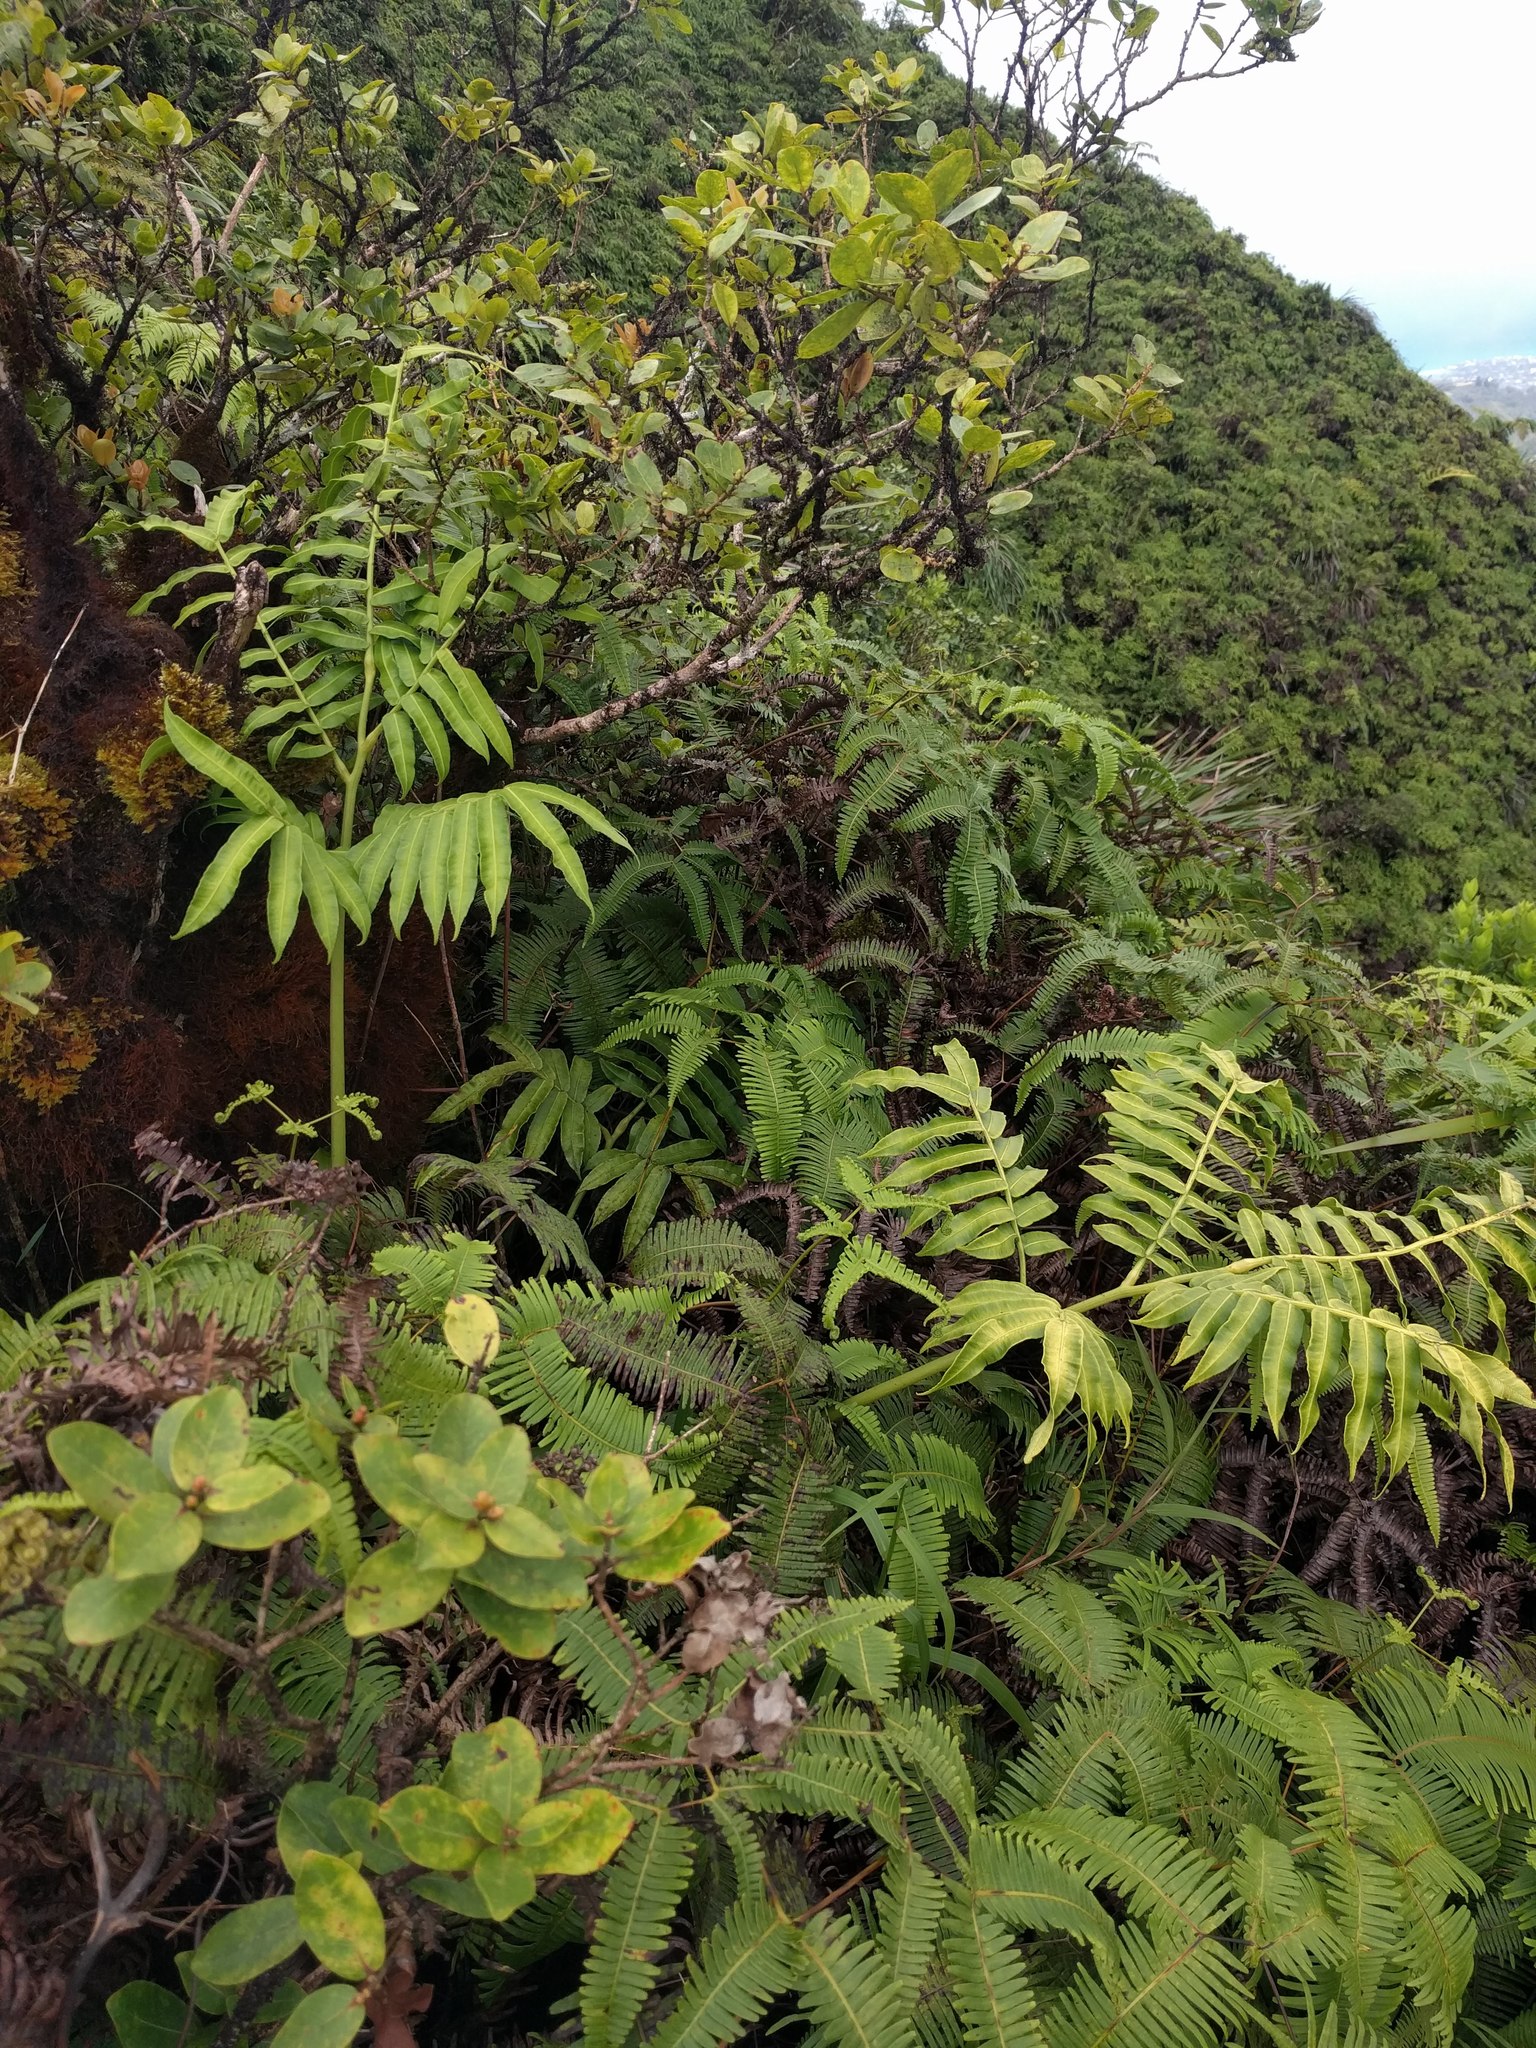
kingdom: Plantae
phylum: Tracheophyta
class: Polypodiopsida
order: Marattiales
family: Marattiaceae
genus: Angiopteris
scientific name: Angiopteris evecta
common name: Mule's-foot fern
